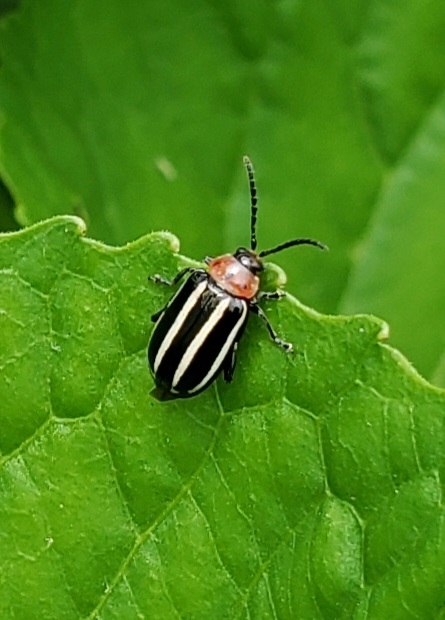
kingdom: Animalia
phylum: Arthropoda
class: Insecta
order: Coleoptera
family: Chrysomelidae
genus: Disonycha
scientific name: Disonycha glabrata
